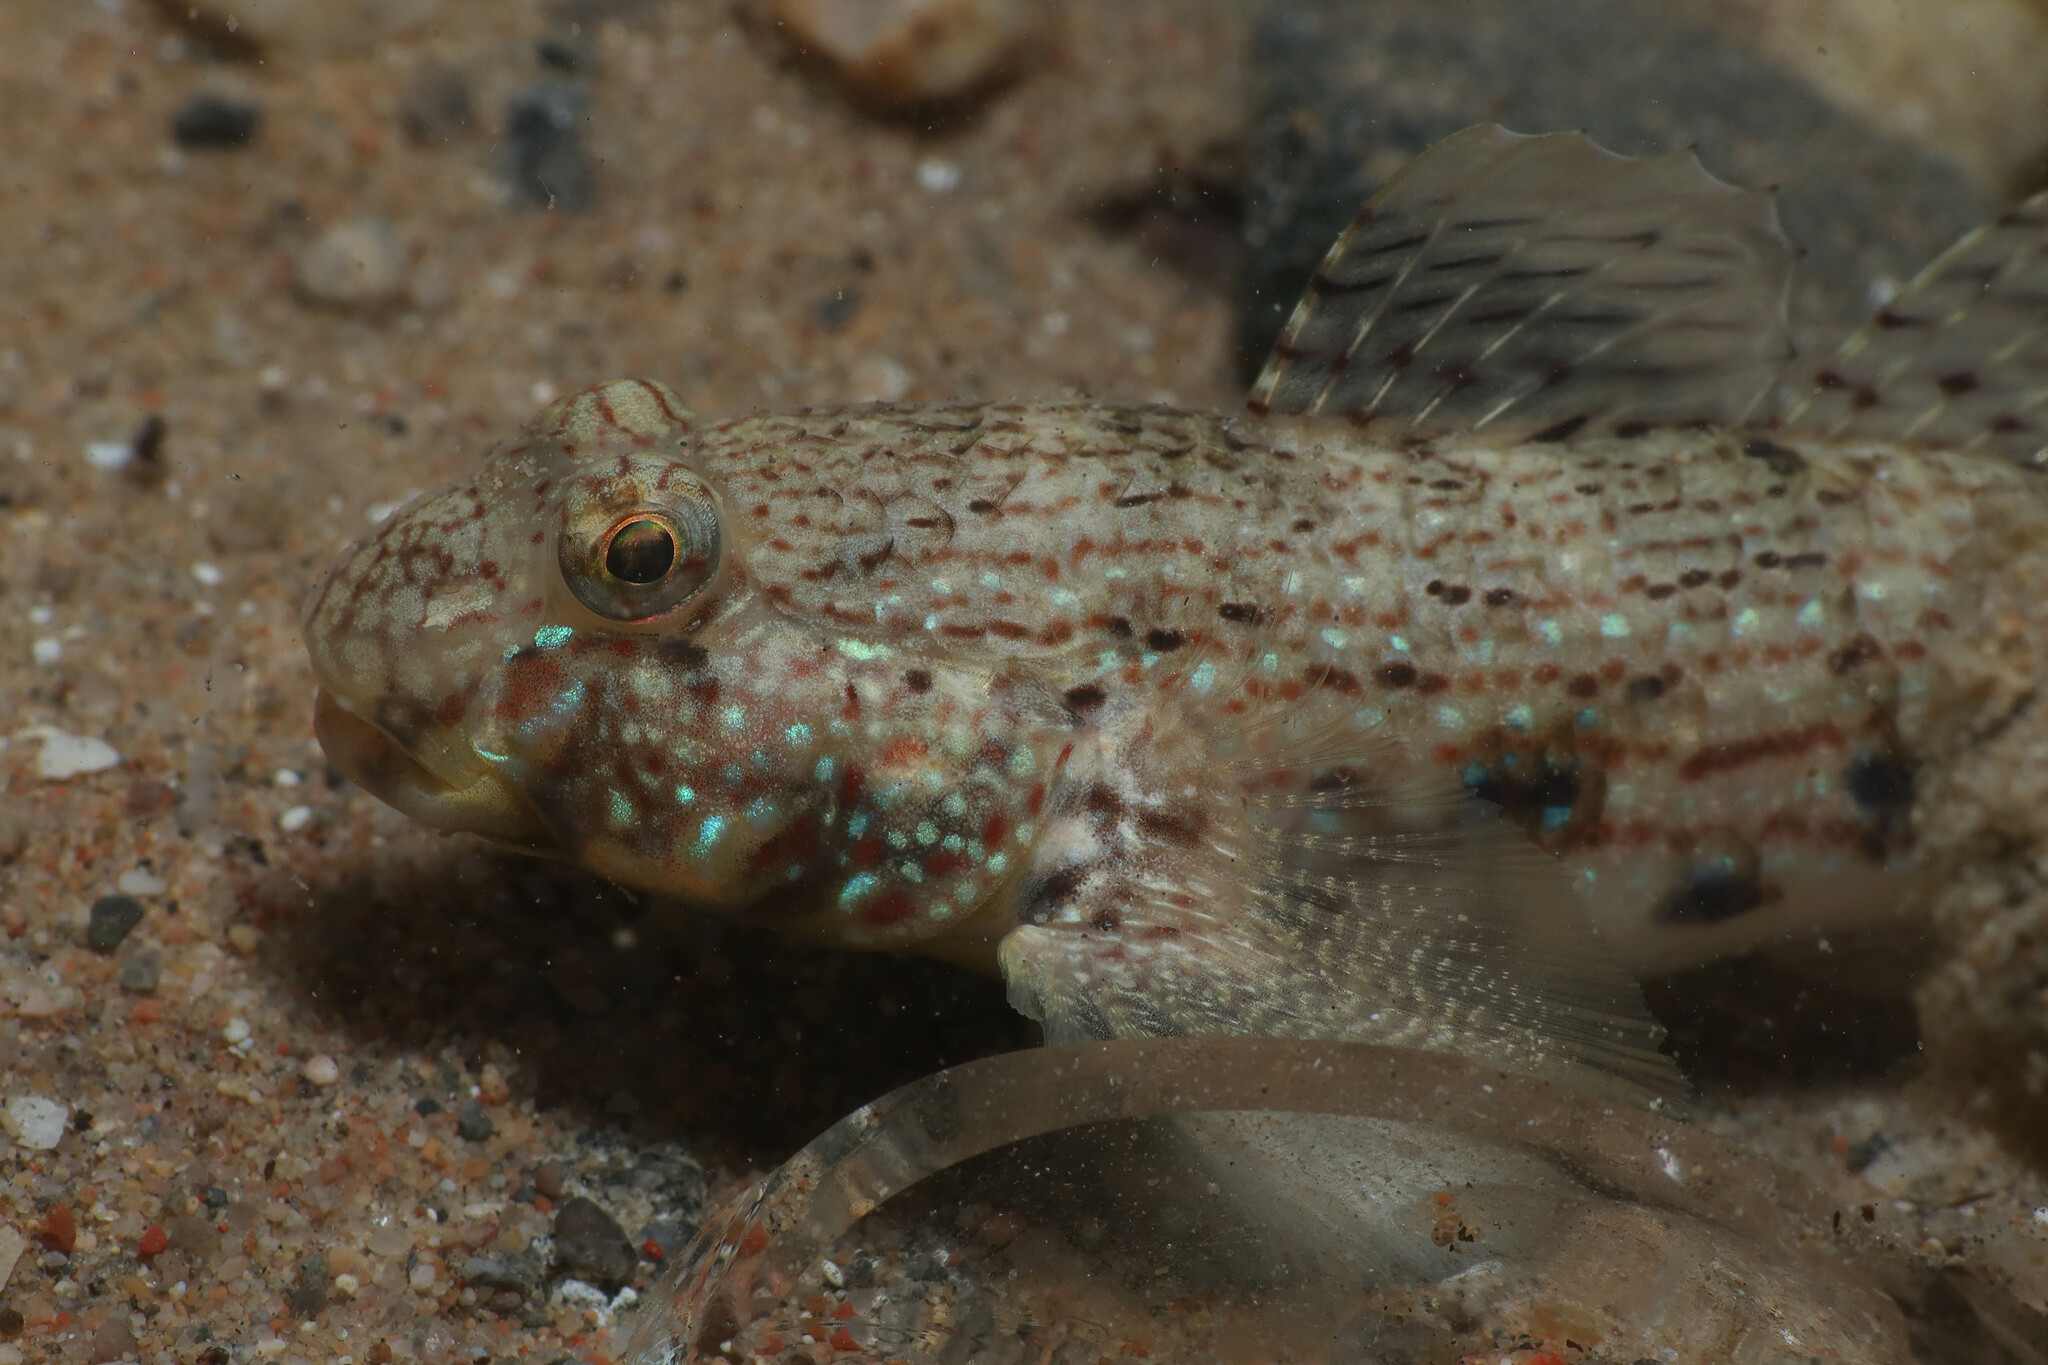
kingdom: Animalia
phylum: Chordata
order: Perciformes
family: Gobiidae
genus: Istigobius
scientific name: Istigobius ornatus
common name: Ornate goby
